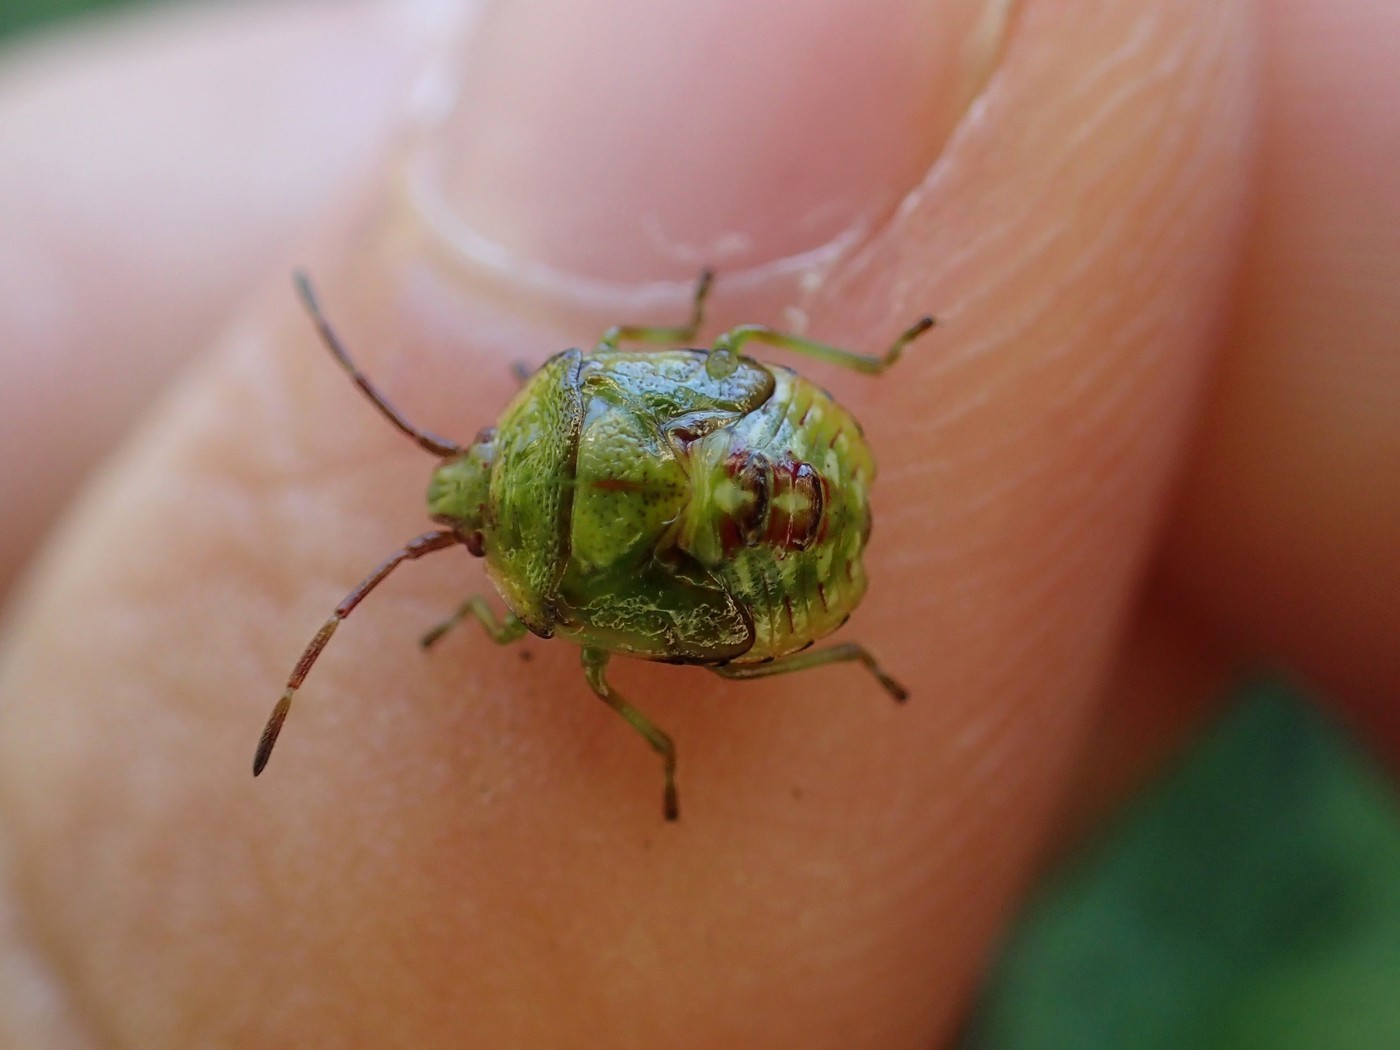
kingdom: Animalia
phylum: Arthropoda
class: Insecta
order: Hemiptera
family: Acanthosomatidae
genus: Elasmostethus
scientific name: Elasmostethus cruciatus
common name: Red-cross shield bug
